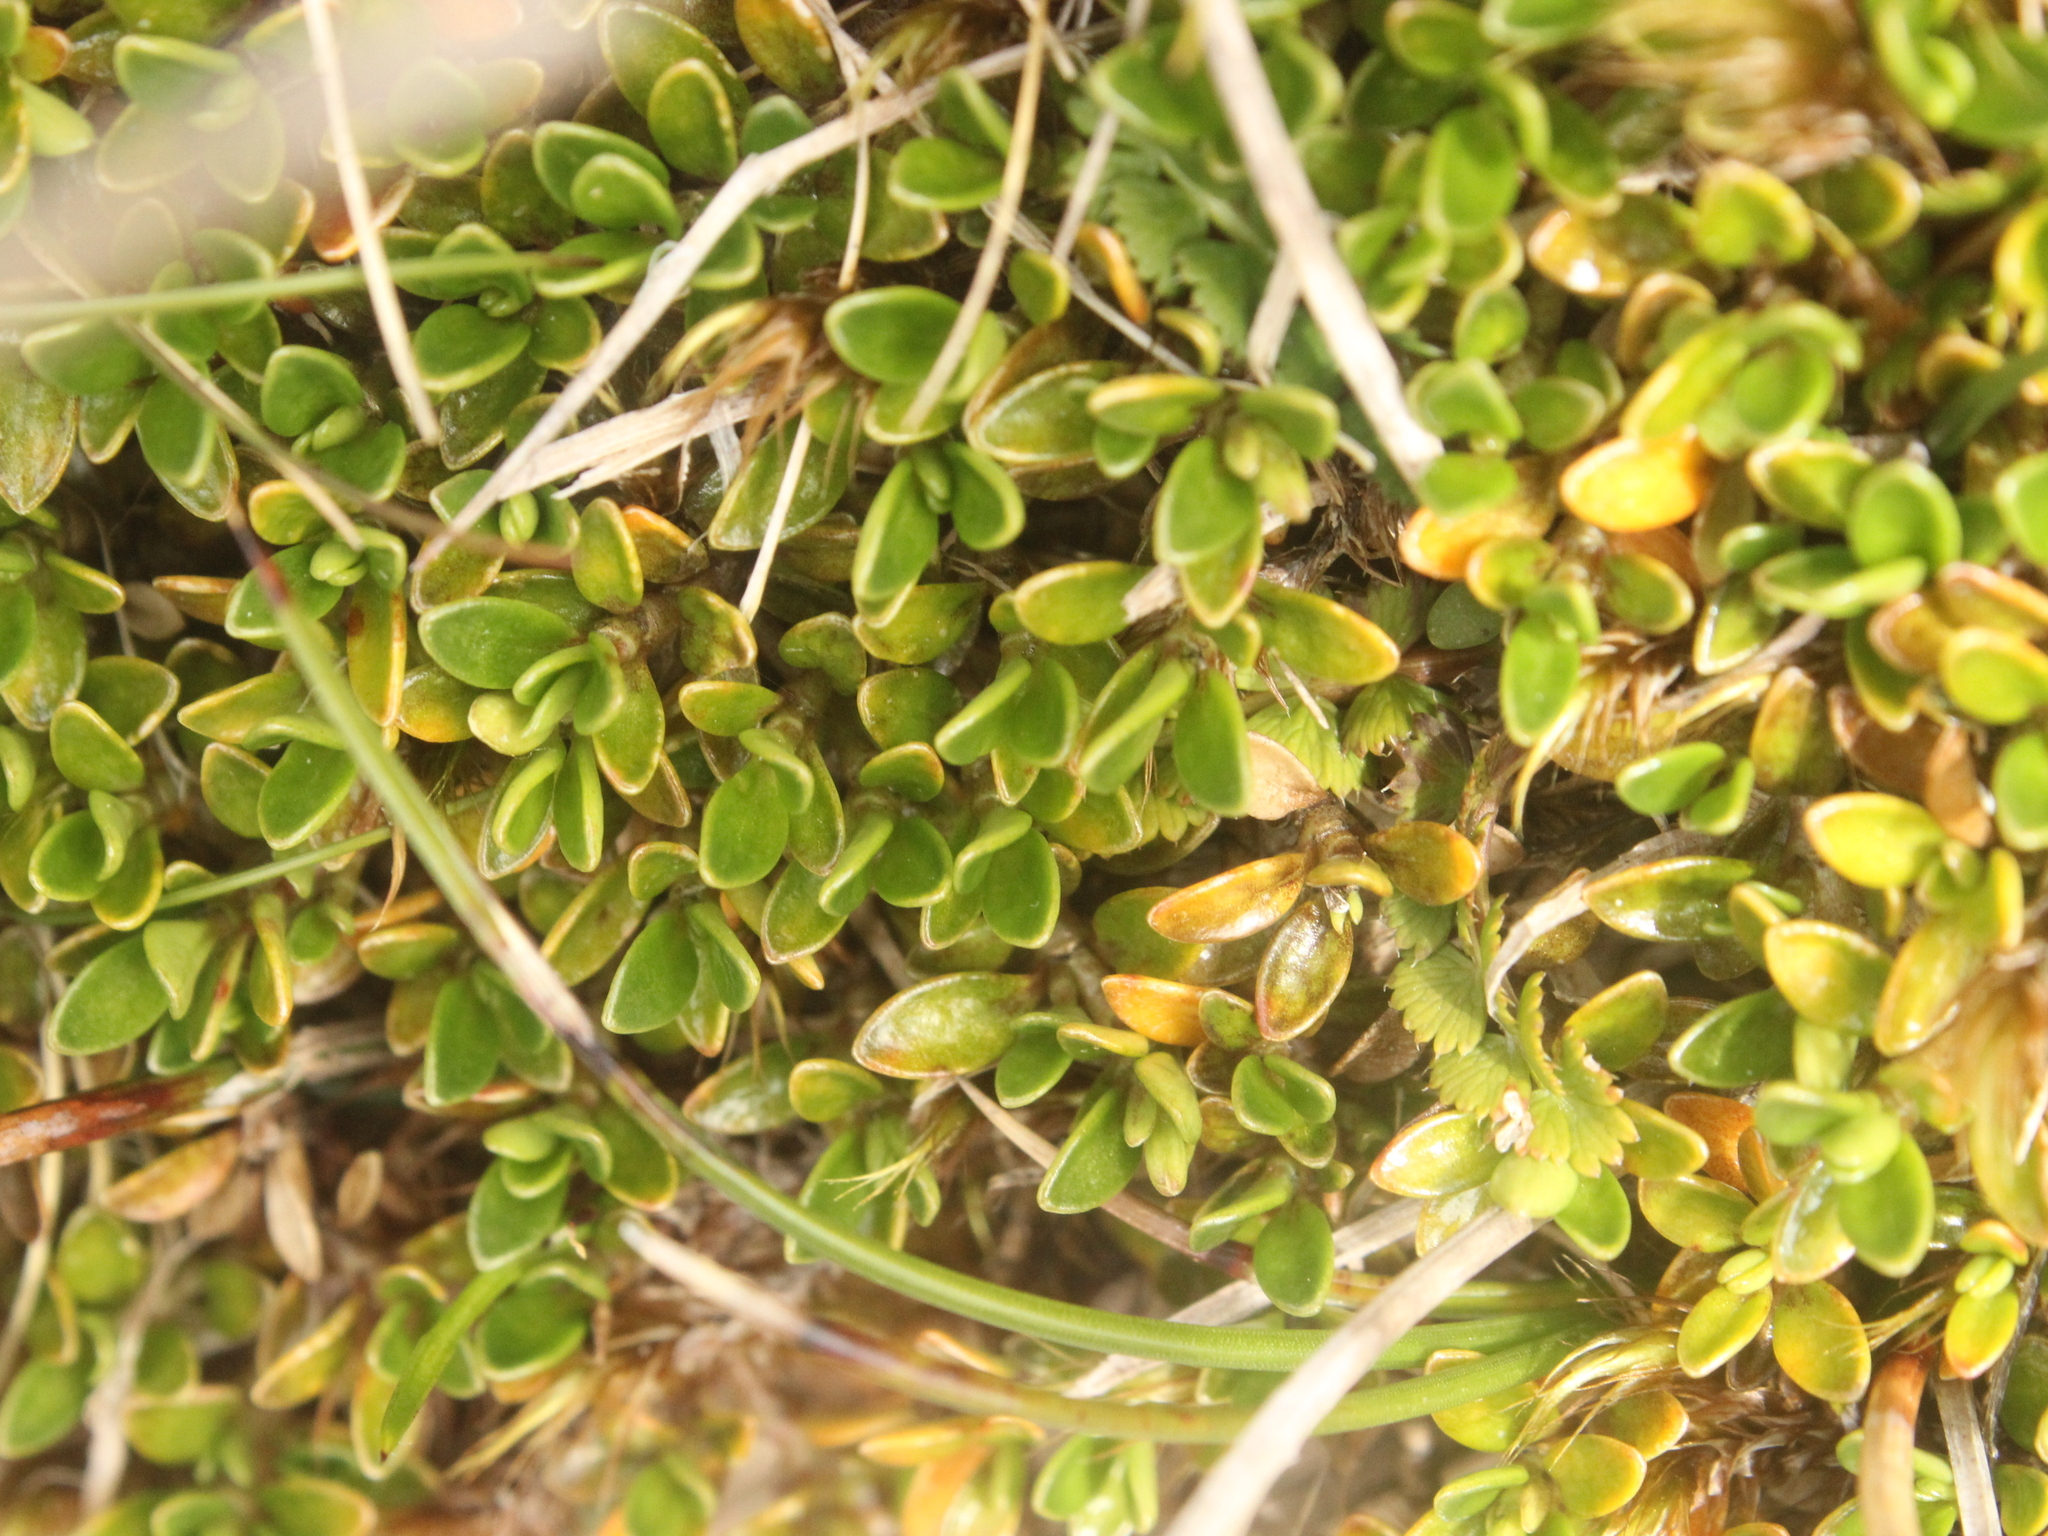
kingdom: Plantae
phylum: Tracheophyta
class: Magnoliopsida
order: Gentianales
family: Rubiaceae
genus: Coprosma
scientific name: Coprosma perpusilla
